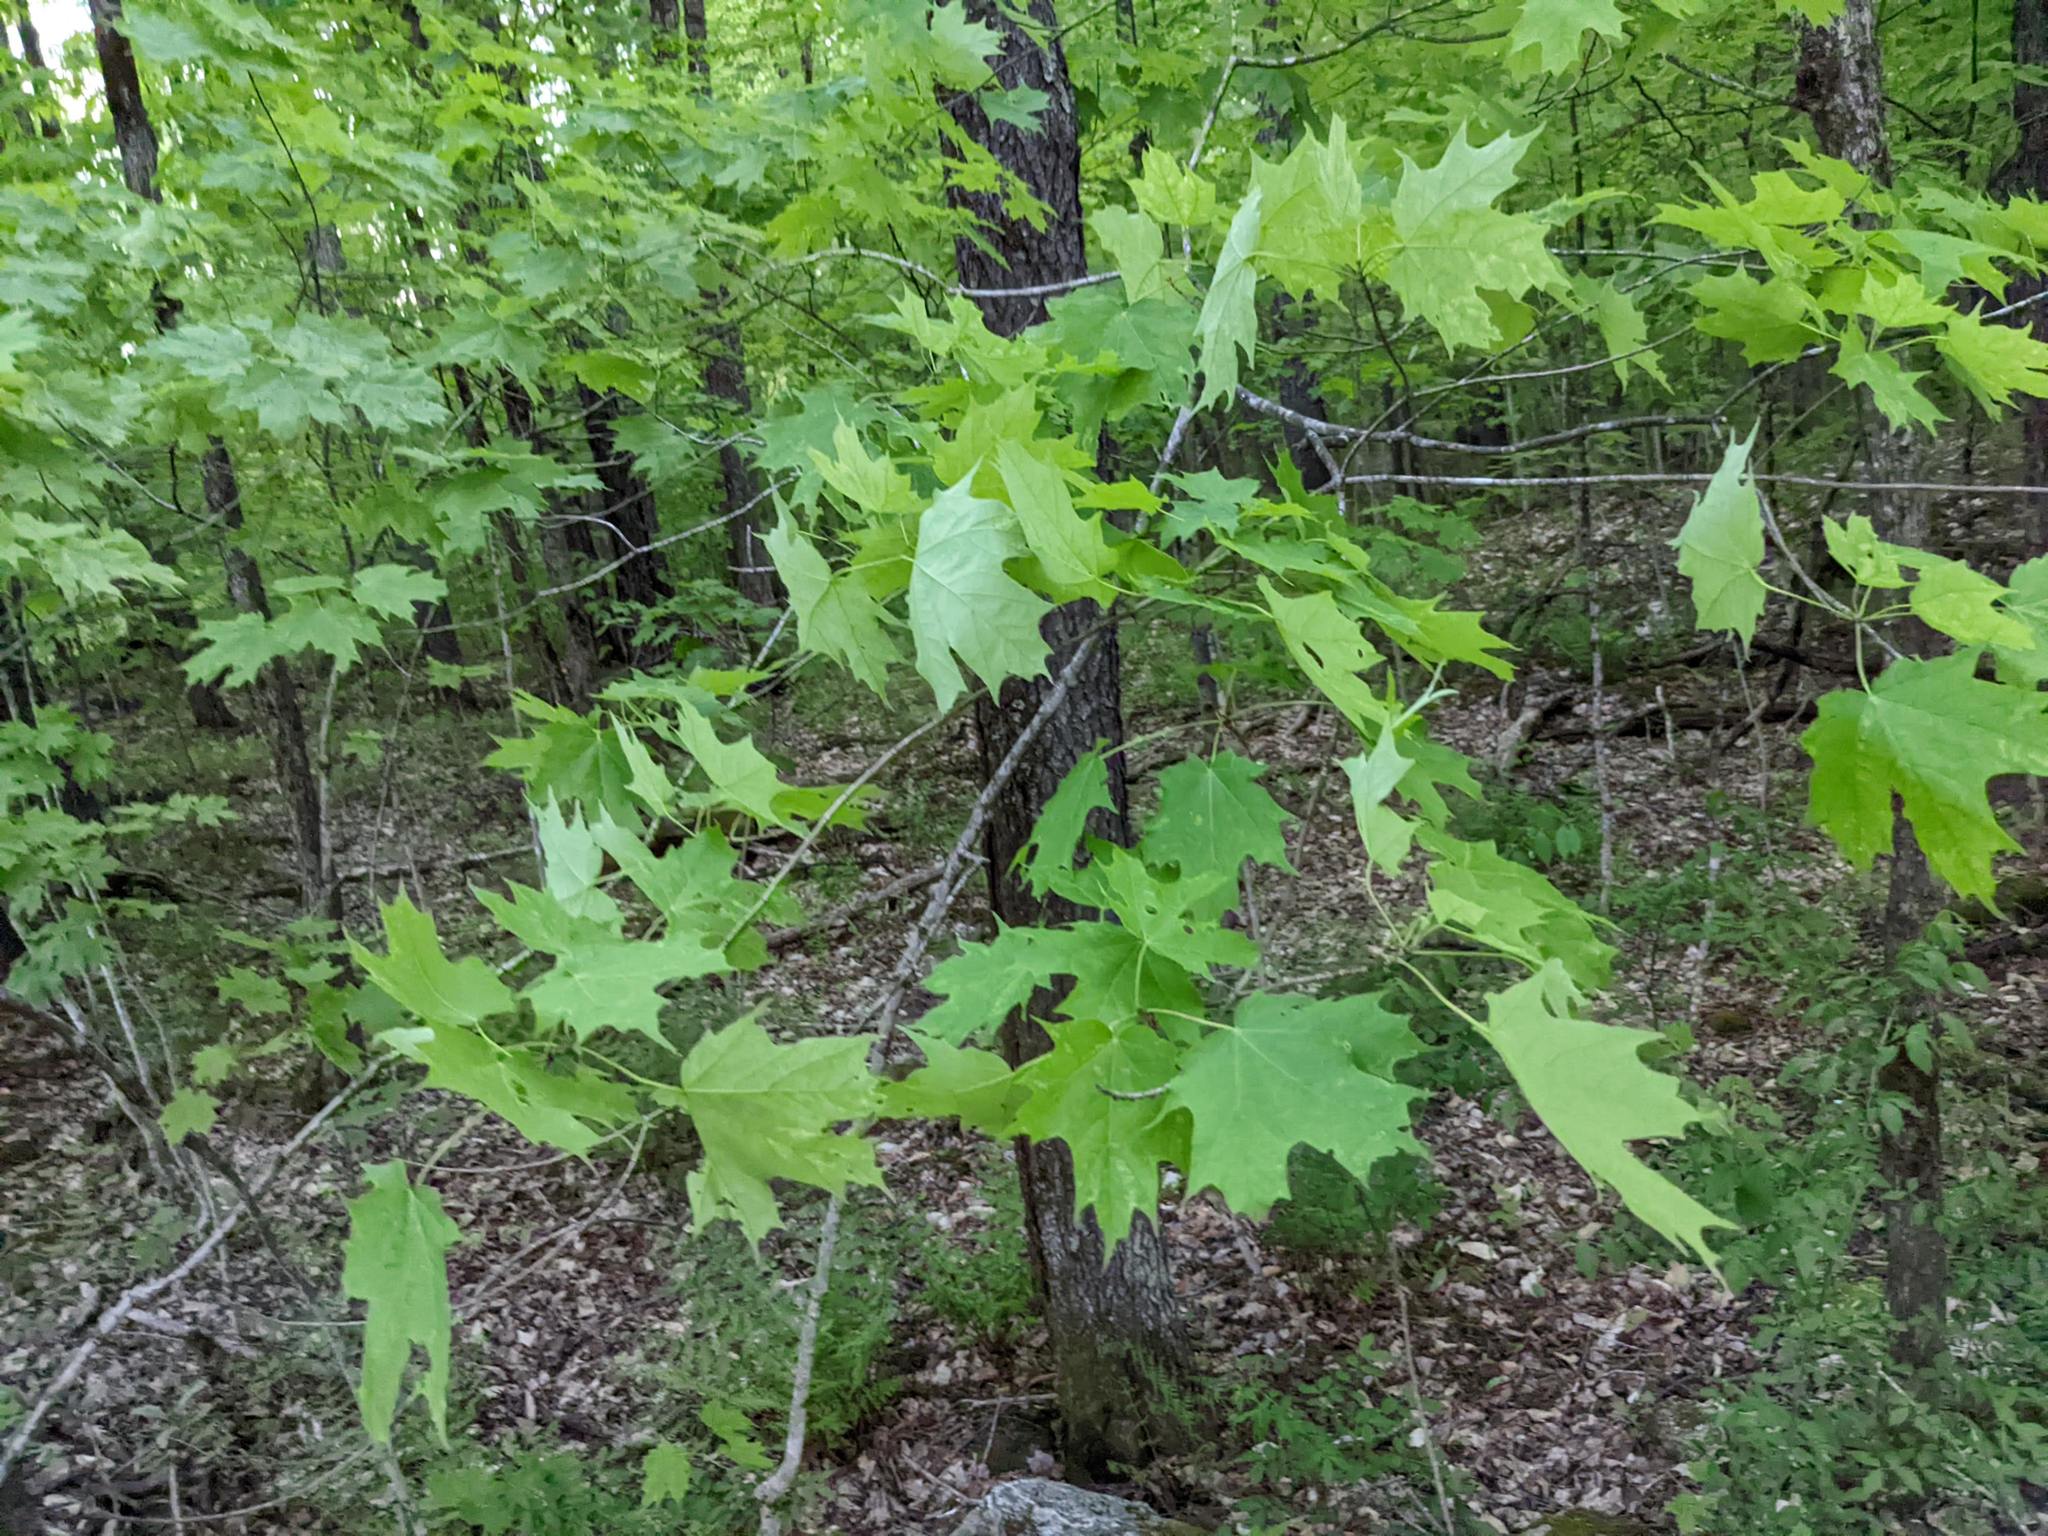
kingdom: Plantae
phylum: Tracheophyta
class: Magnoliopsida
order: Sapindales
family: Sapindaceae
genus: Acer
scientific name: Acer saccharum
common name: Sugar maple
